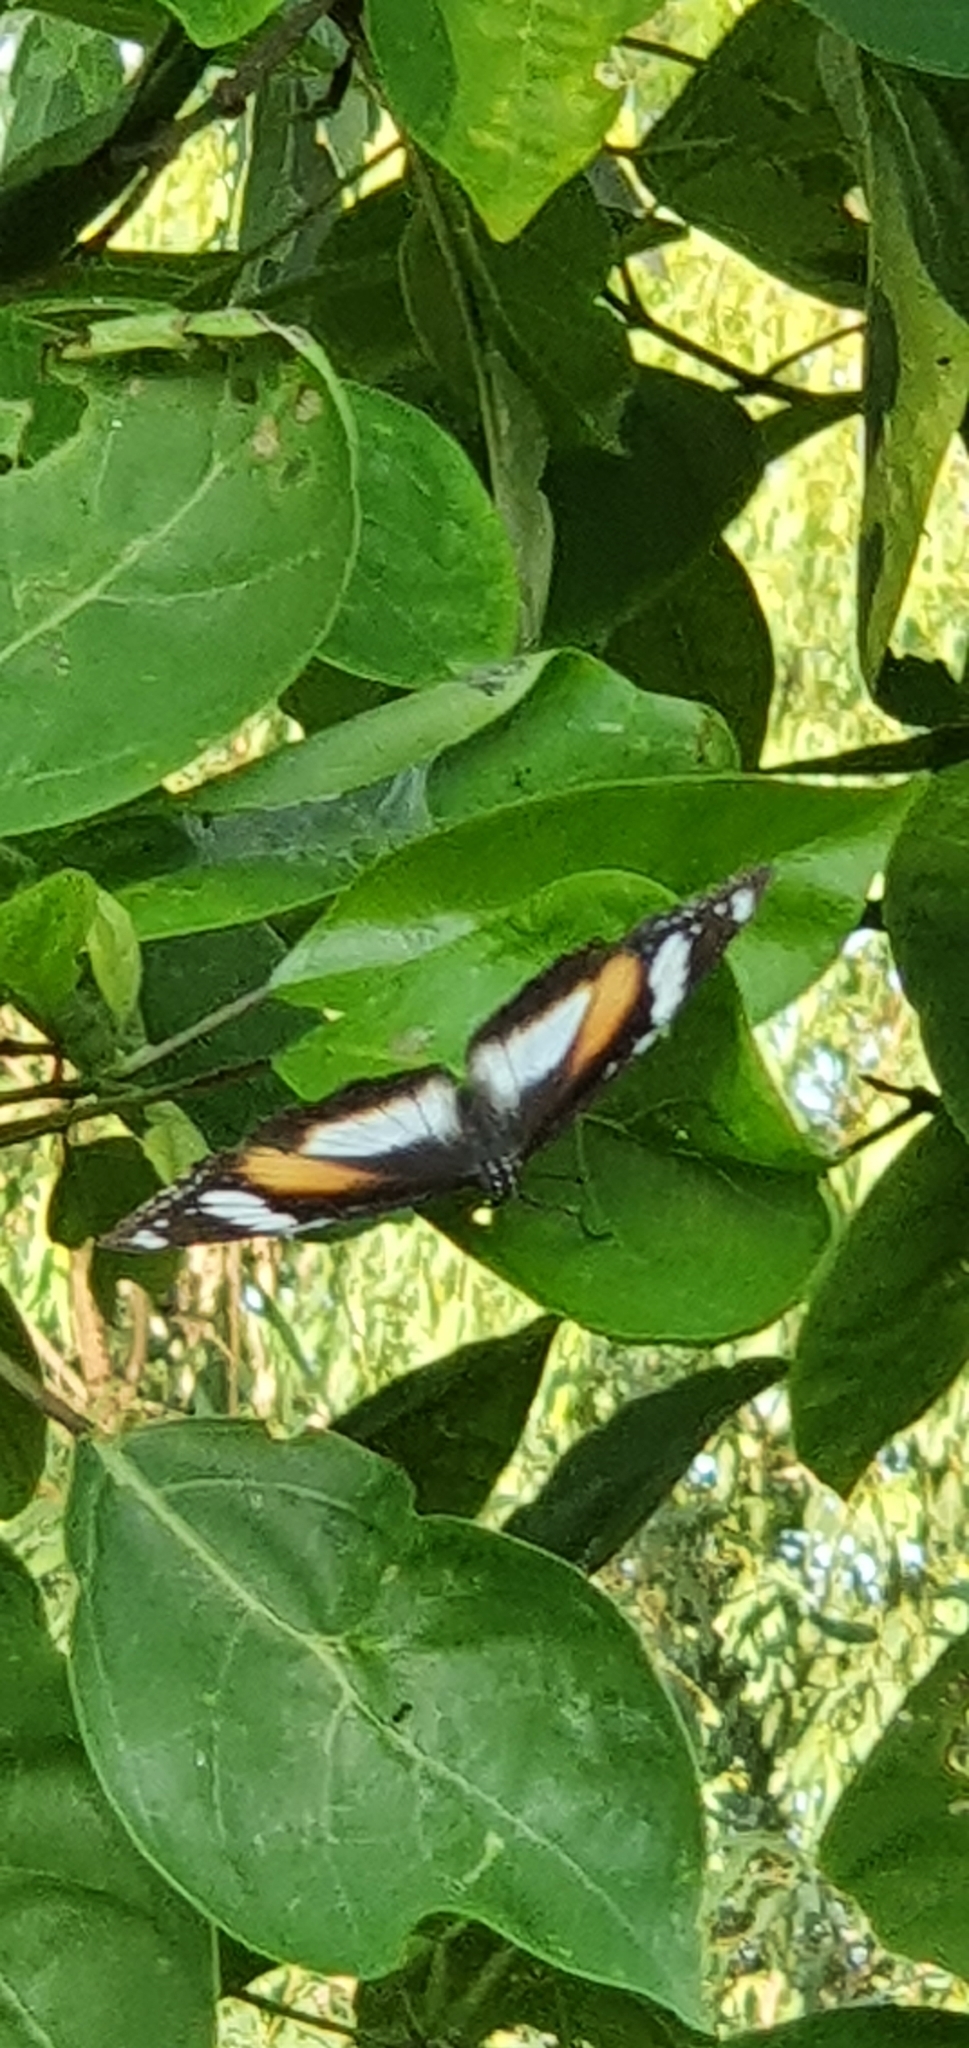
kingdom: Animalia
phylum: Arthropoda
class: Insecta
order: Lepidoptera
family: Nymphalidae
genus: Hypolimnas
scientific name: Hypolimnas bolina
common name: Great eggfly
